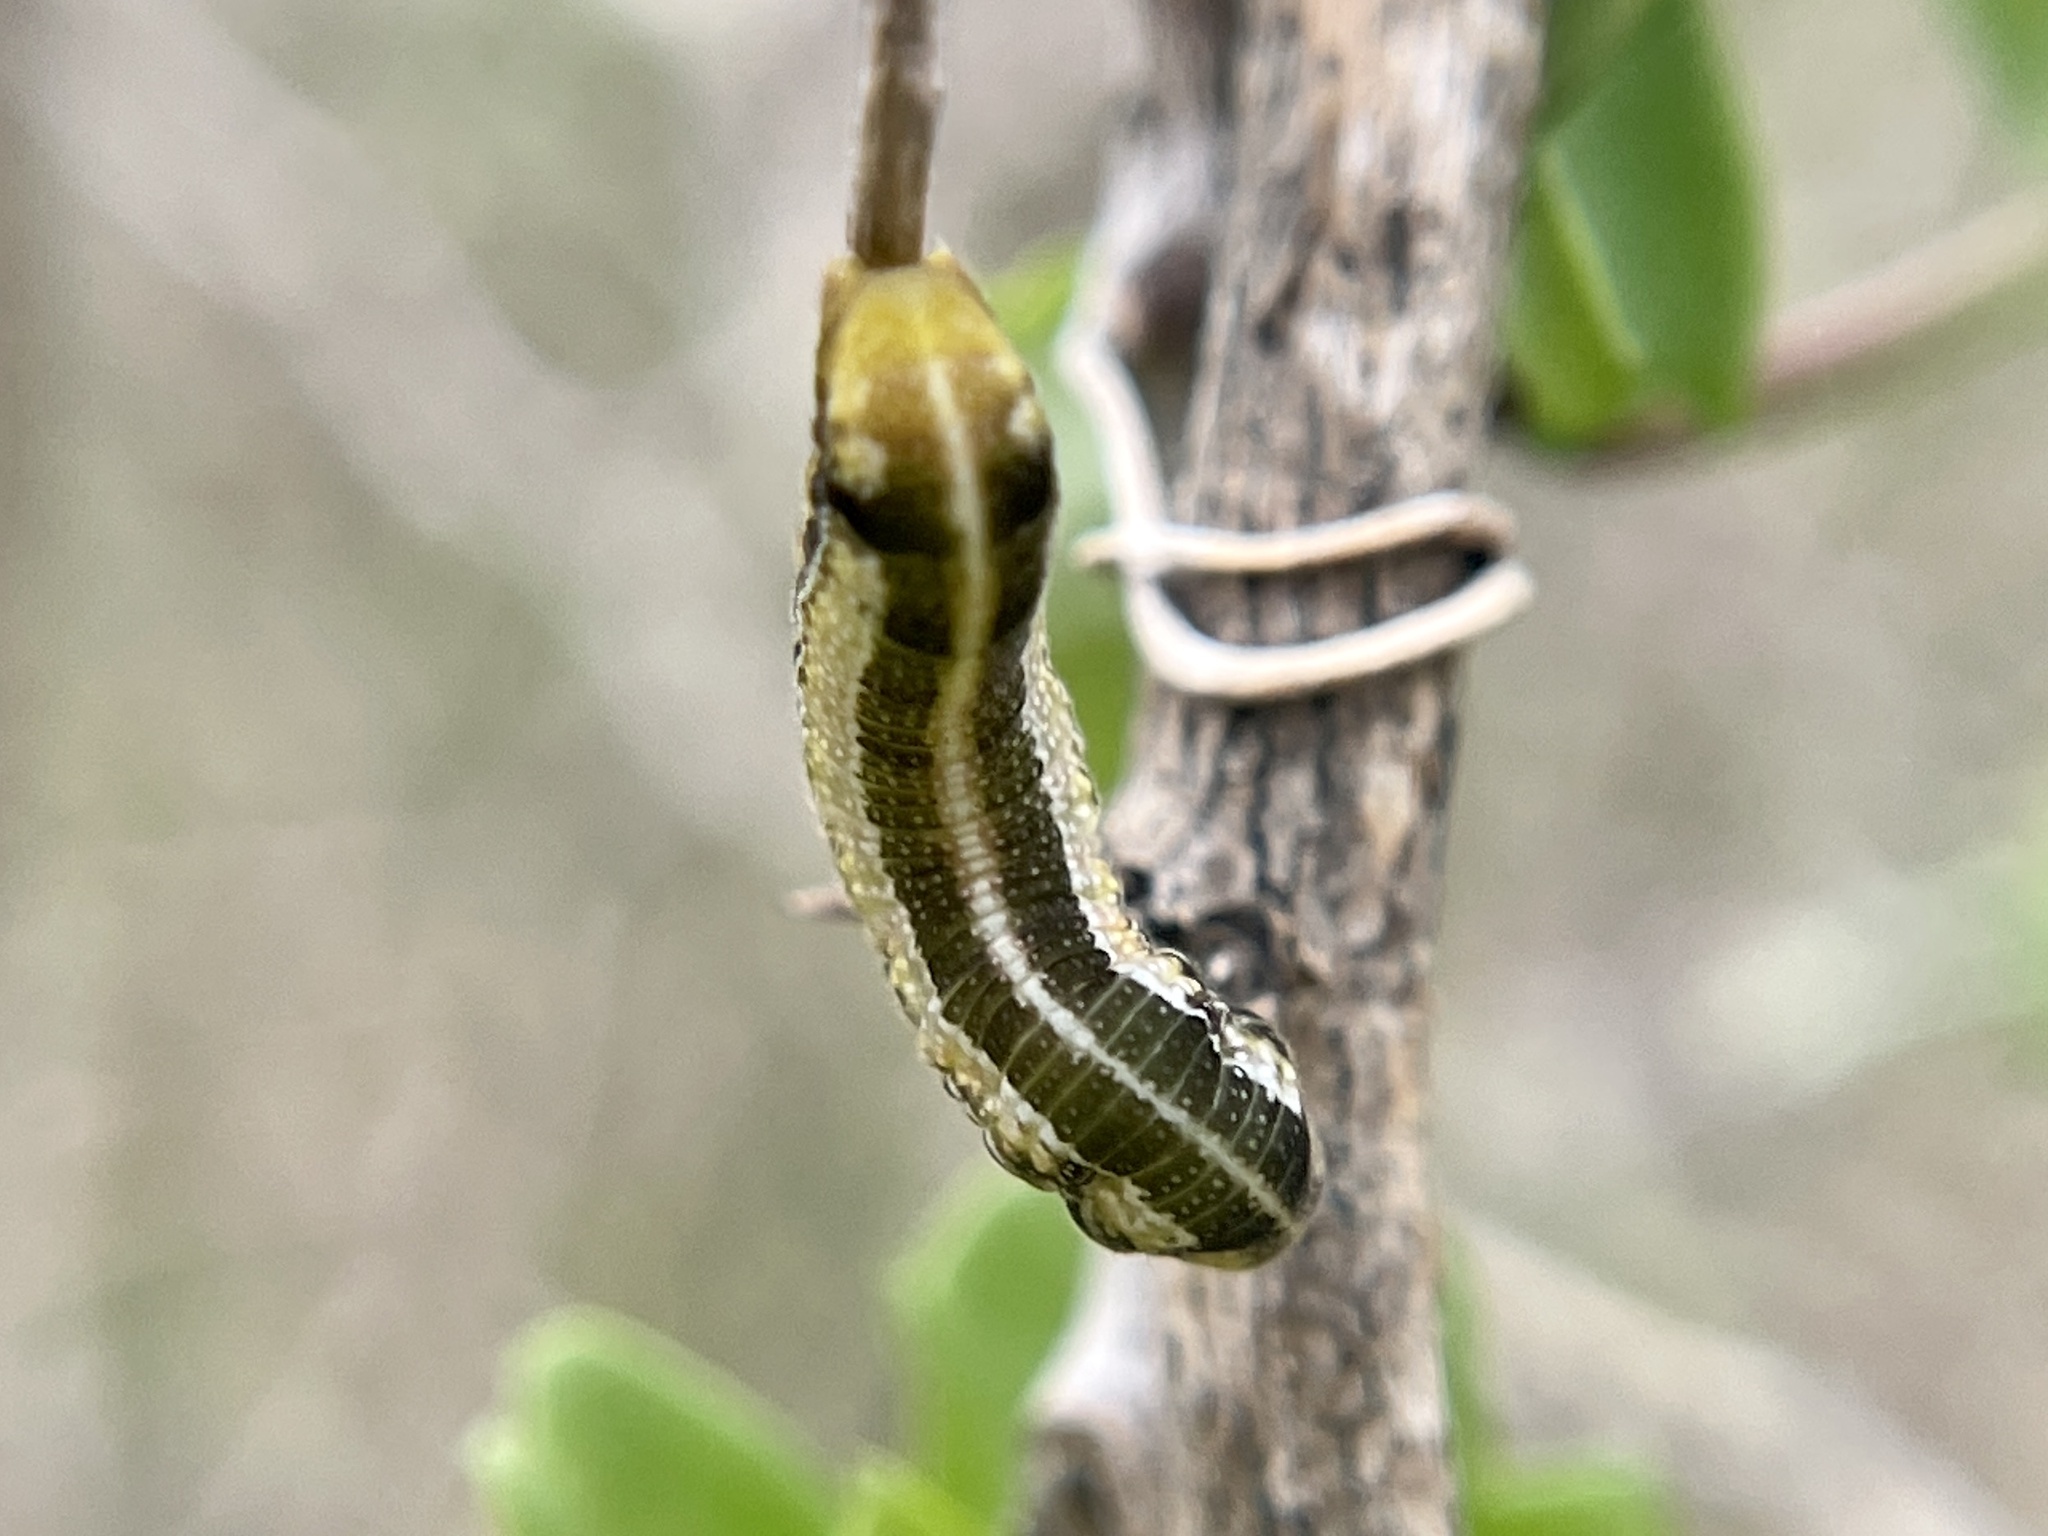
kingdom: Animalia
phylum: Arthropoda
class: Insecta
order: Lepidoptera
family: Nymphalidae
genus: Libytheana
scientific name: Libytheana carinenta
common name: American snout
